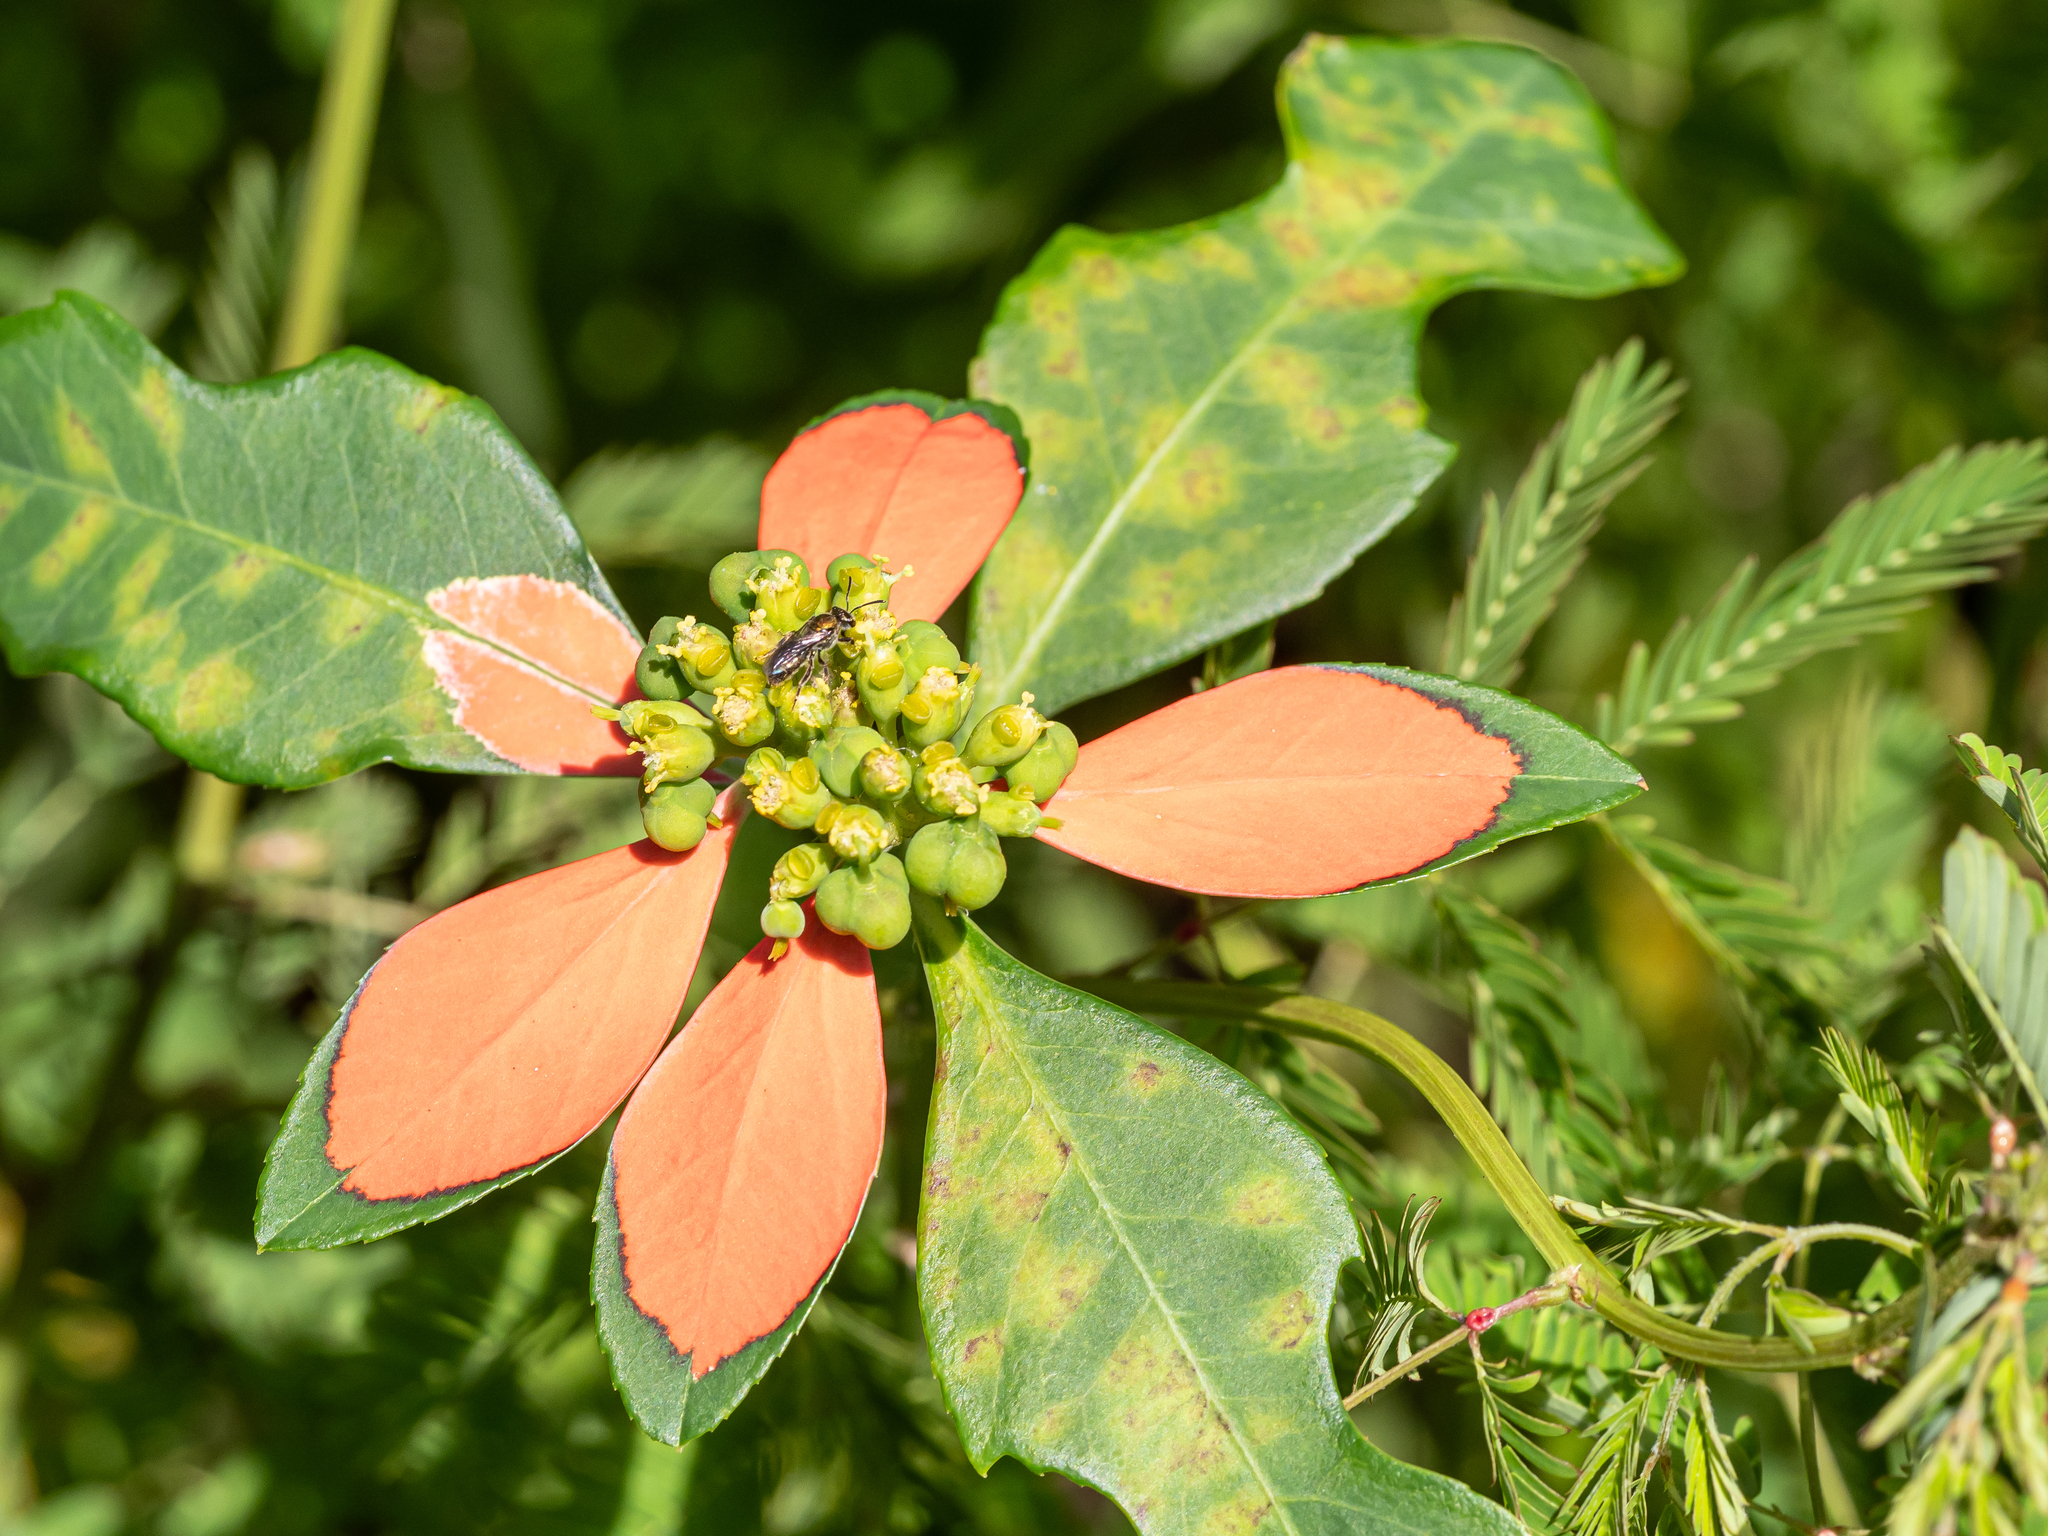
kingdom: Plantae
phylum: Tracheophyta
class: Magnoliopsida
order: Malpighiales
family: Euphorbiaceae
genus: Euphorbia
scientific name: Euphorbia heterophylla
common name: Mexican fireplant
